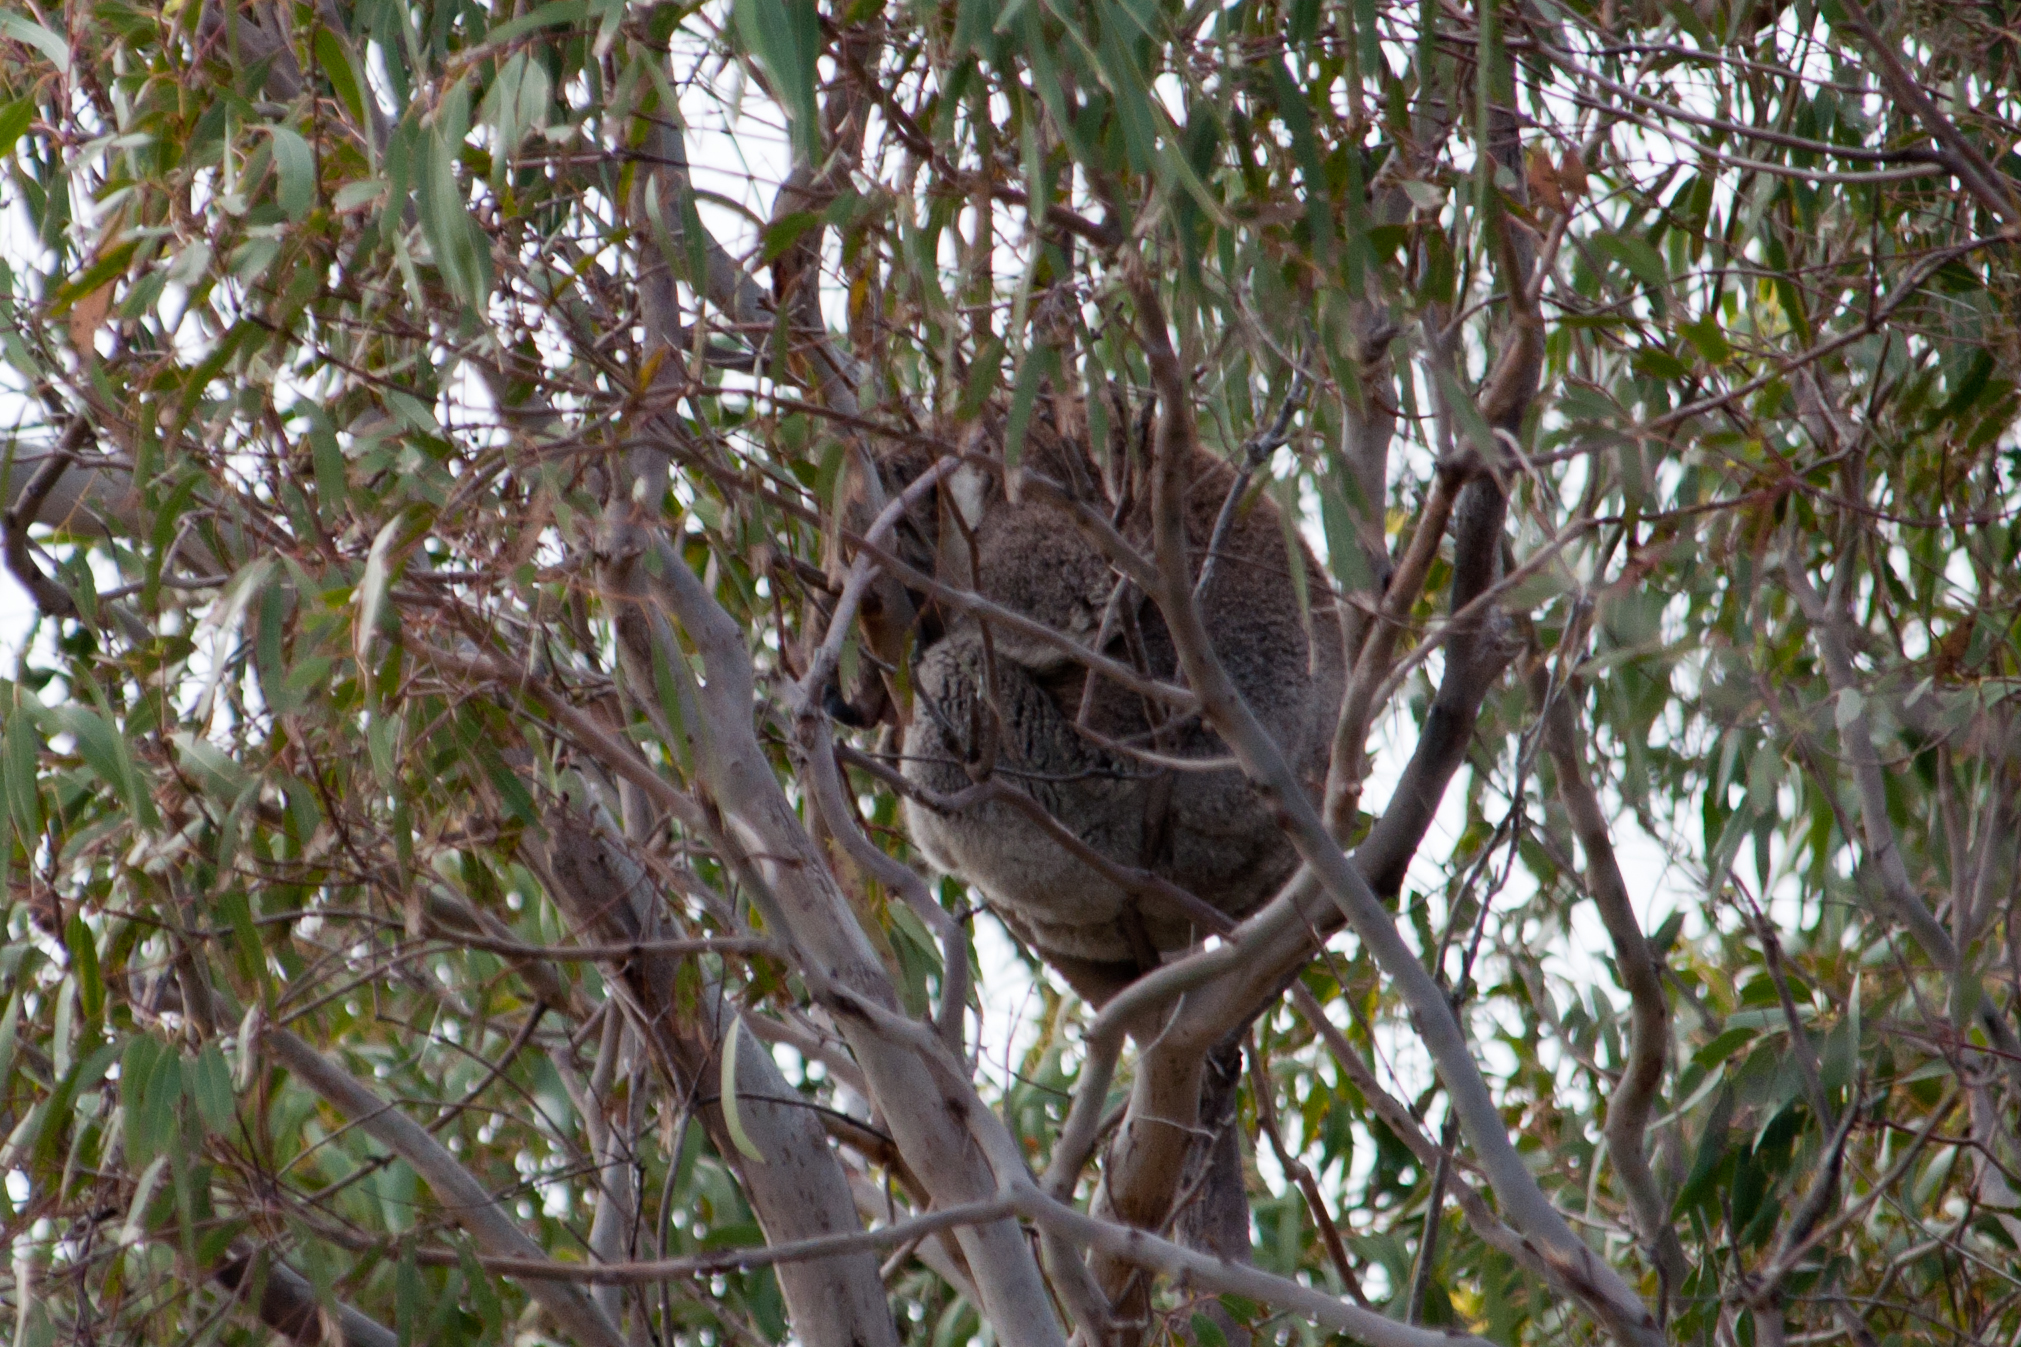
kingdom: Animalia
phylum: Chordata
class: Mammalia
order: Diprotodontia
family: Phascolarctidae
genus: Phascolarctos
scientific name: Phascolarctos cinereus
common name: Koala
